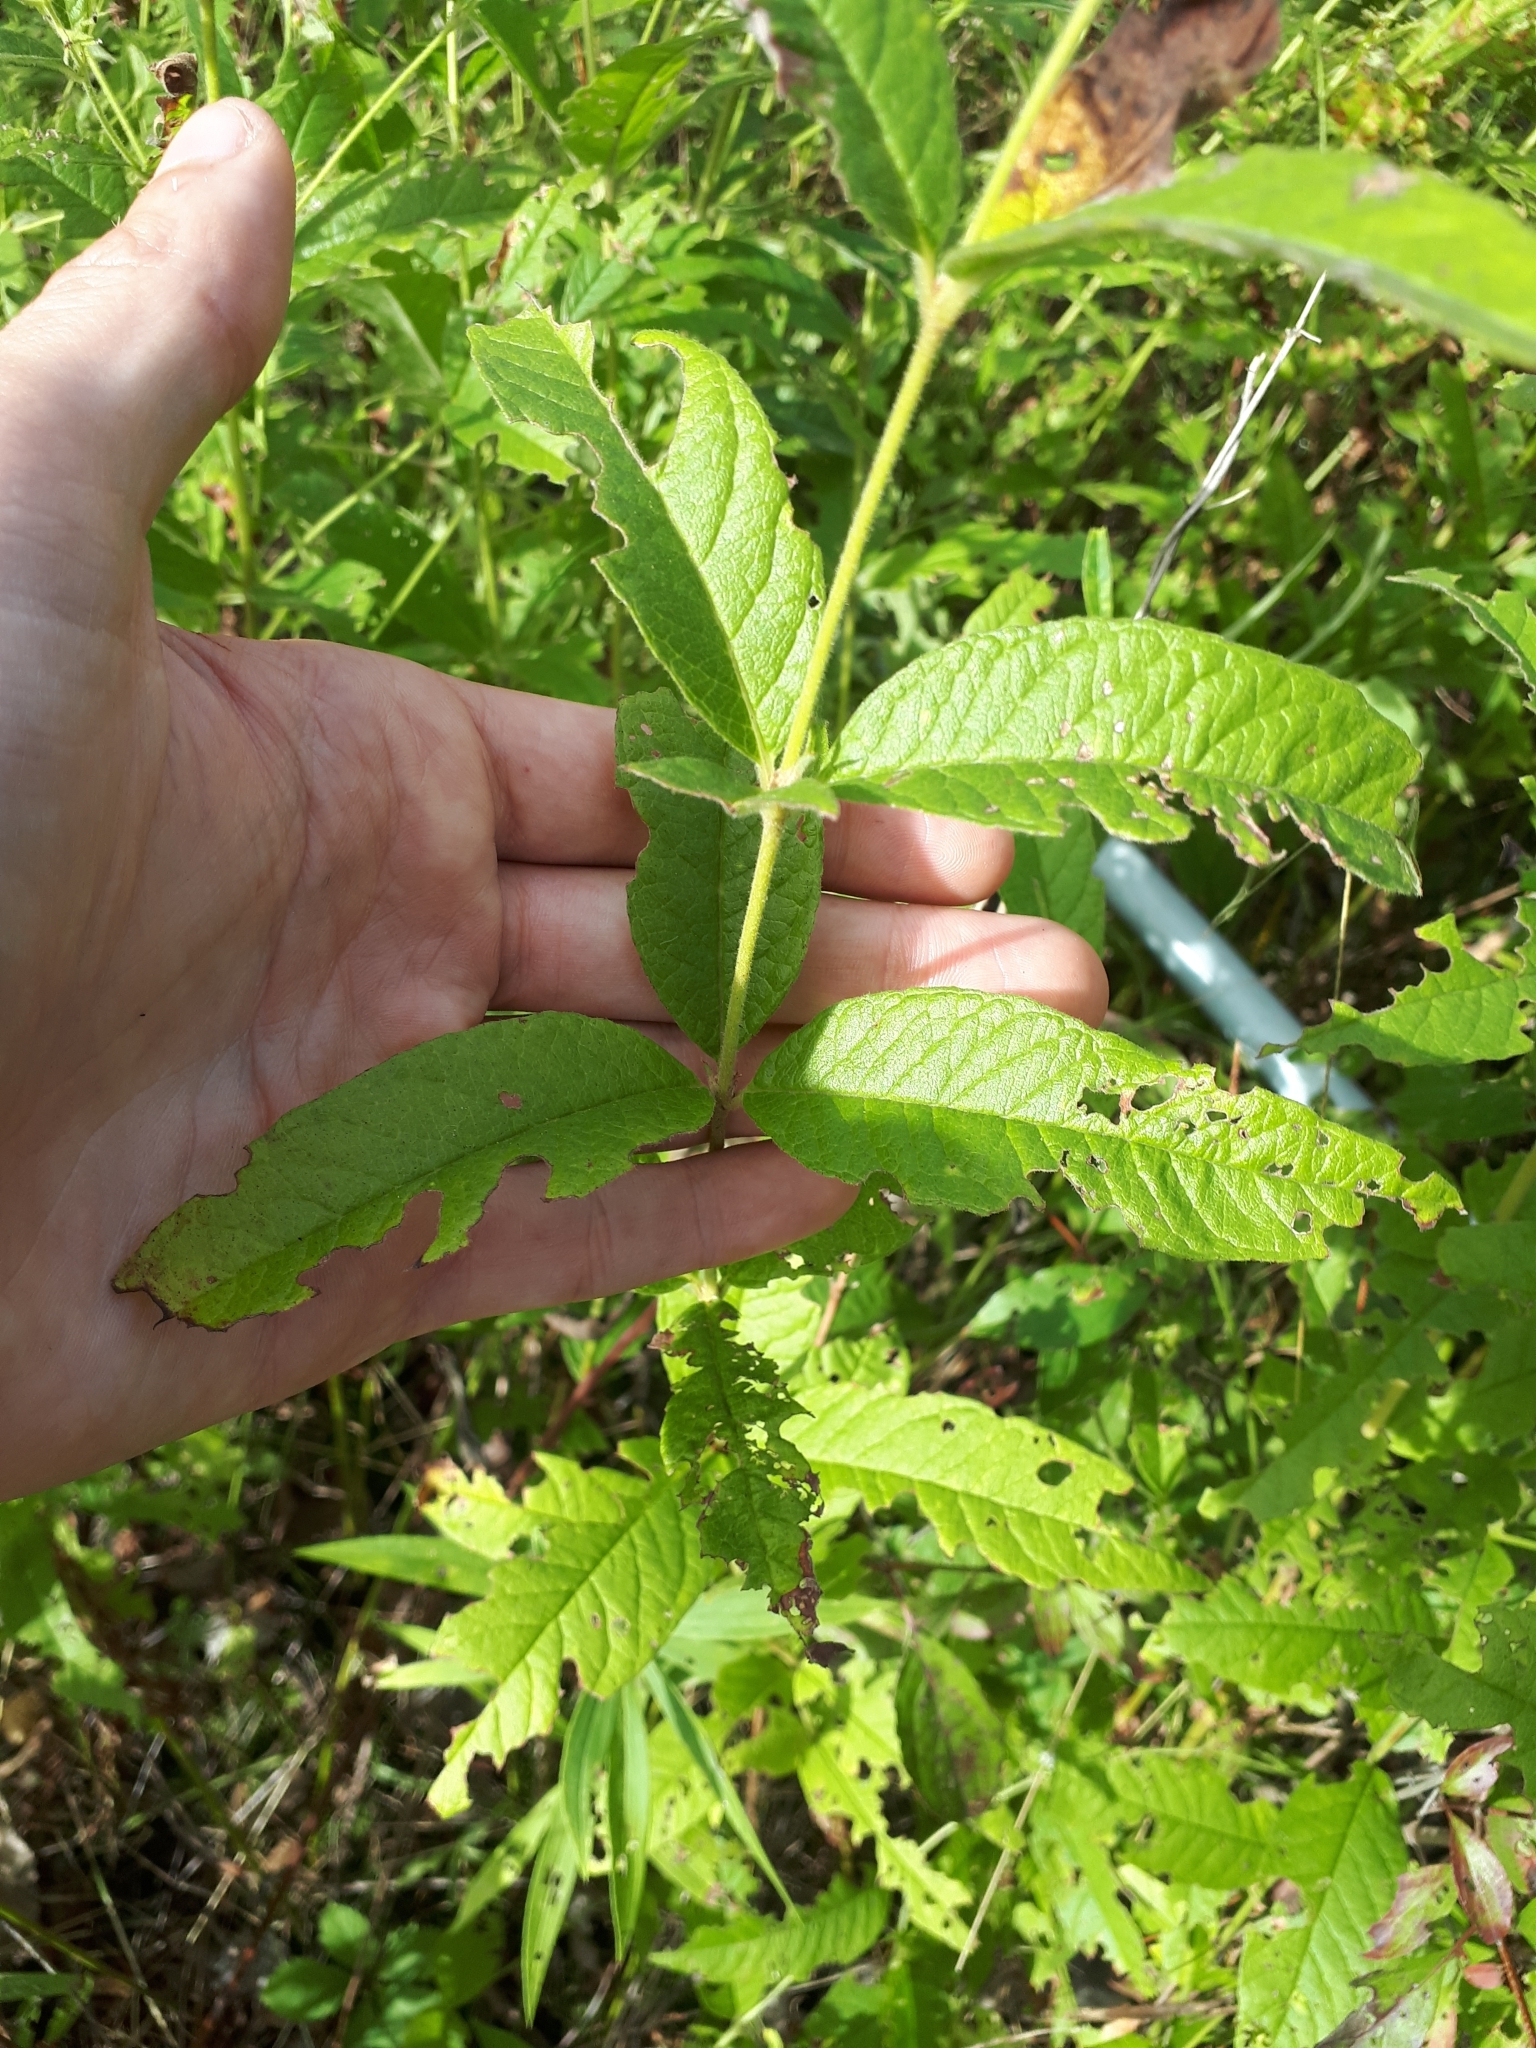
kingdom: Plantae
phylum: Tracheophyta
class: Magnoliopsida
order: Ericales
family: Primulaceae
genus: Lysimachia
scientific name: Lysimachia vulgaris
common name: Yellow loosestrife
